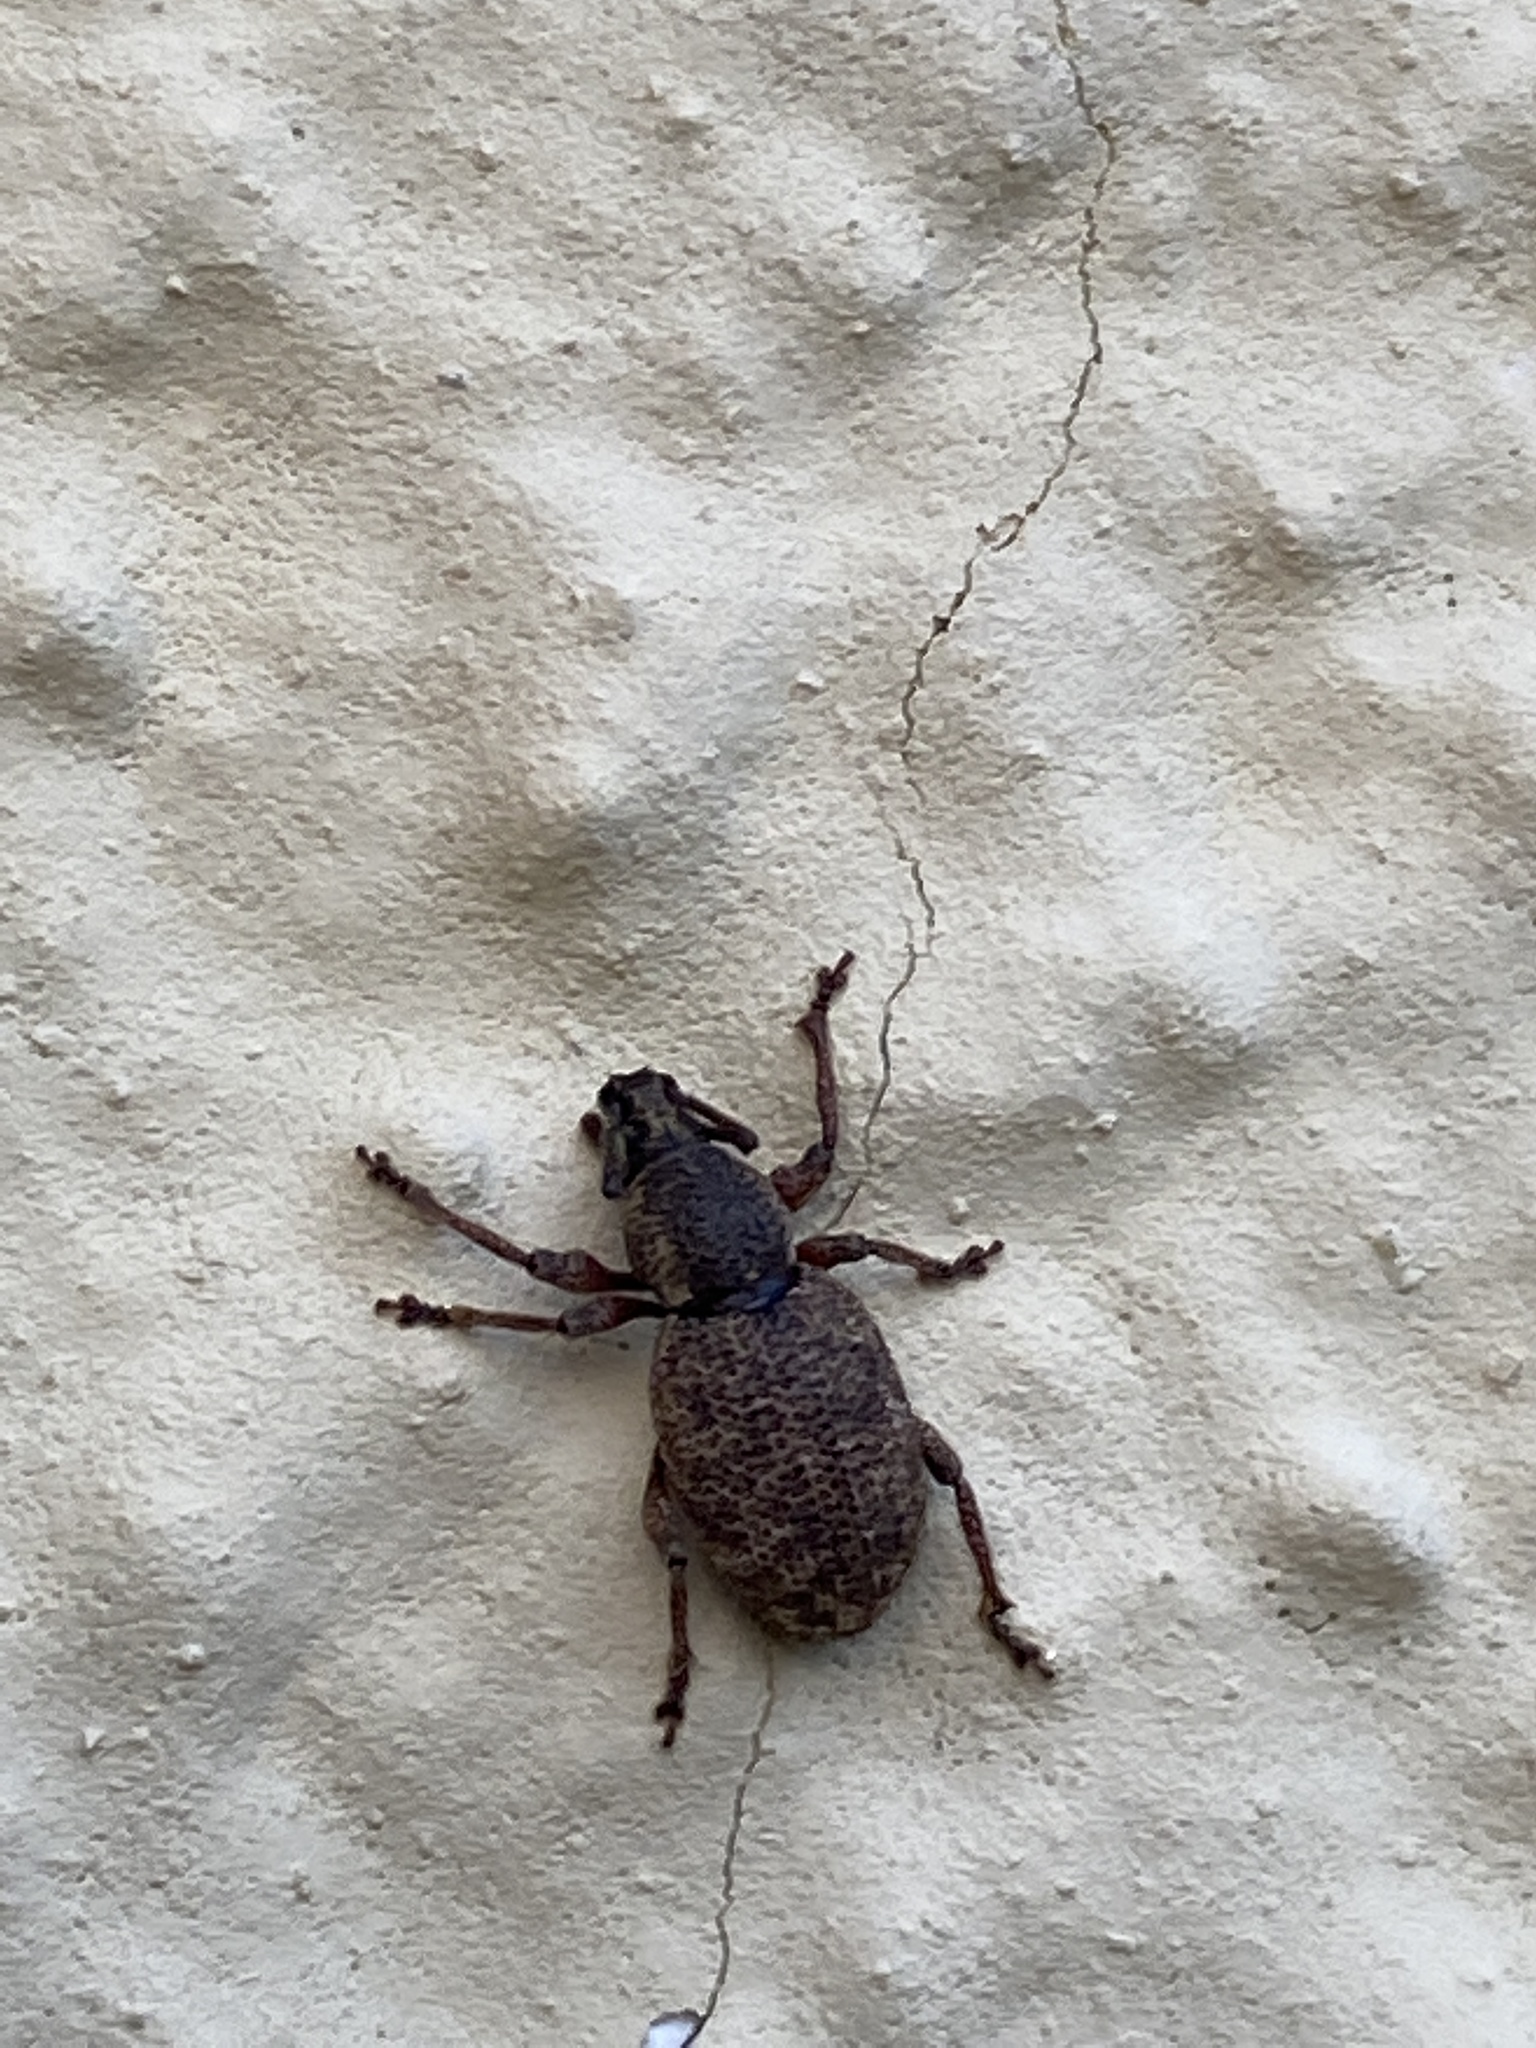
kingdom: Animalia
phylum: Arthropoda
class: Insecta
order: Coleoptera
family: Curculionidae
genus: Otiorhynchus
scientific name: Otiorhynchus singularis
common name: Clay-coloured weevil
